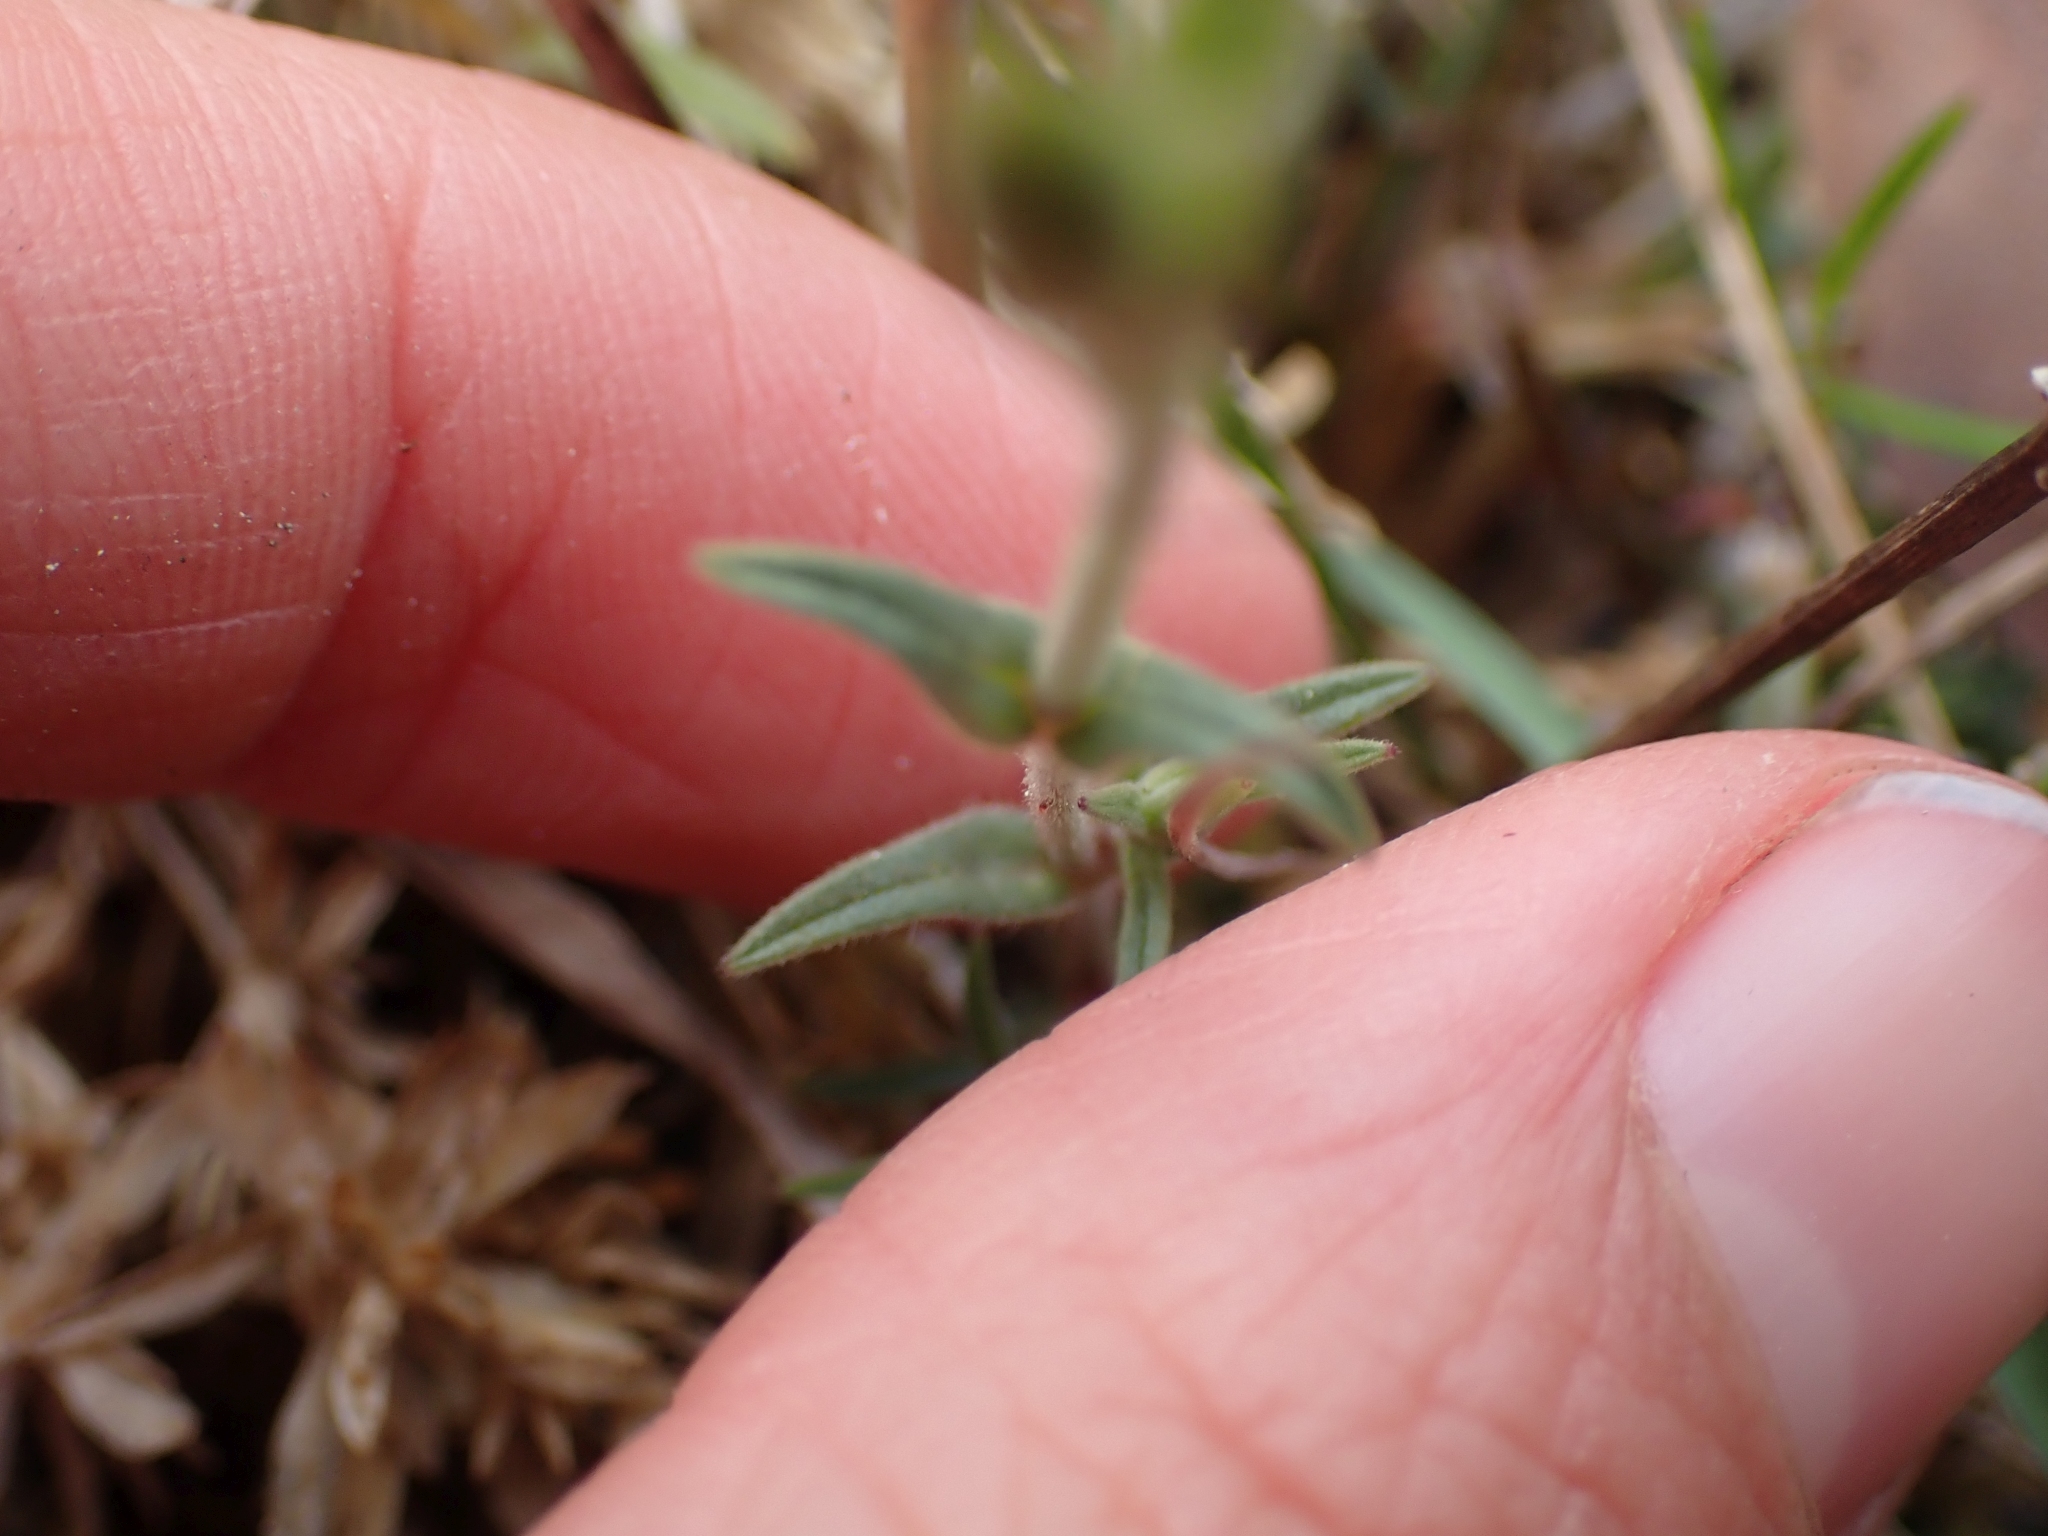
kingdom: Plantae
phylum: Tracheophyta
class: Magnoliopsida
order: Caryophyllales
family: Caryophyllaceae
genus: Cerastium
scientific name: Cerastium arvense
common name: Field mouse-ear
